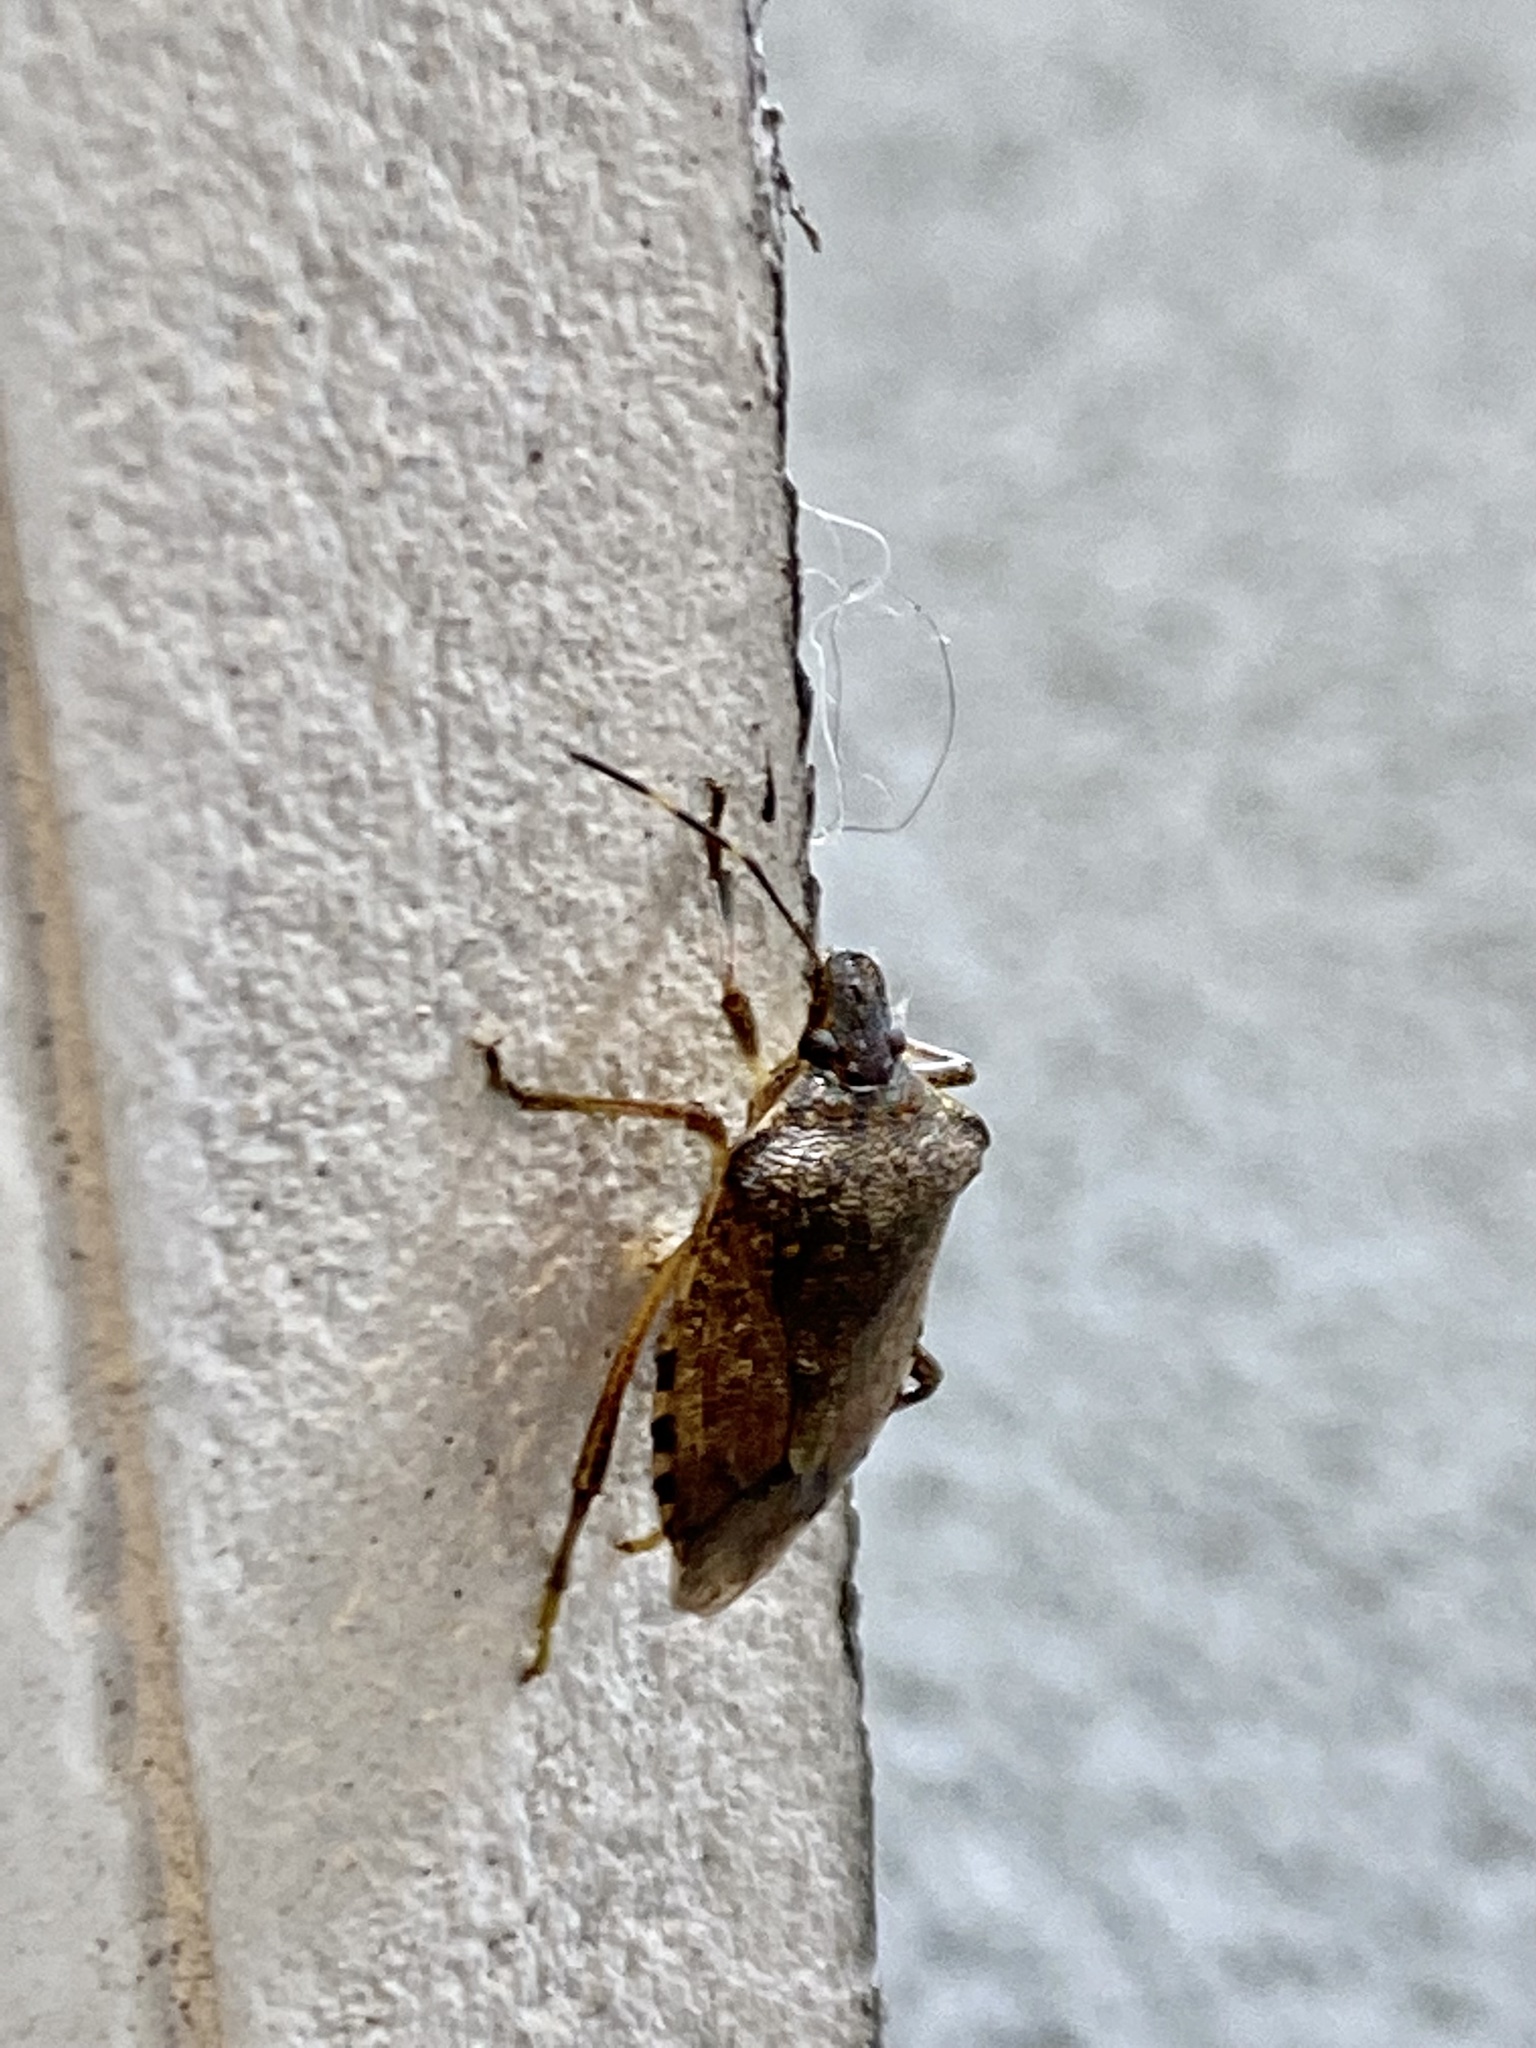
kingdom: Animalia
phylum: Arthropoda
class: Insecta
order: Hemiptera
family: Pentatomidae
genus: Halyomorpha
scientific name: Halyomorpha halys
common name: Brown marmorated stink bug
